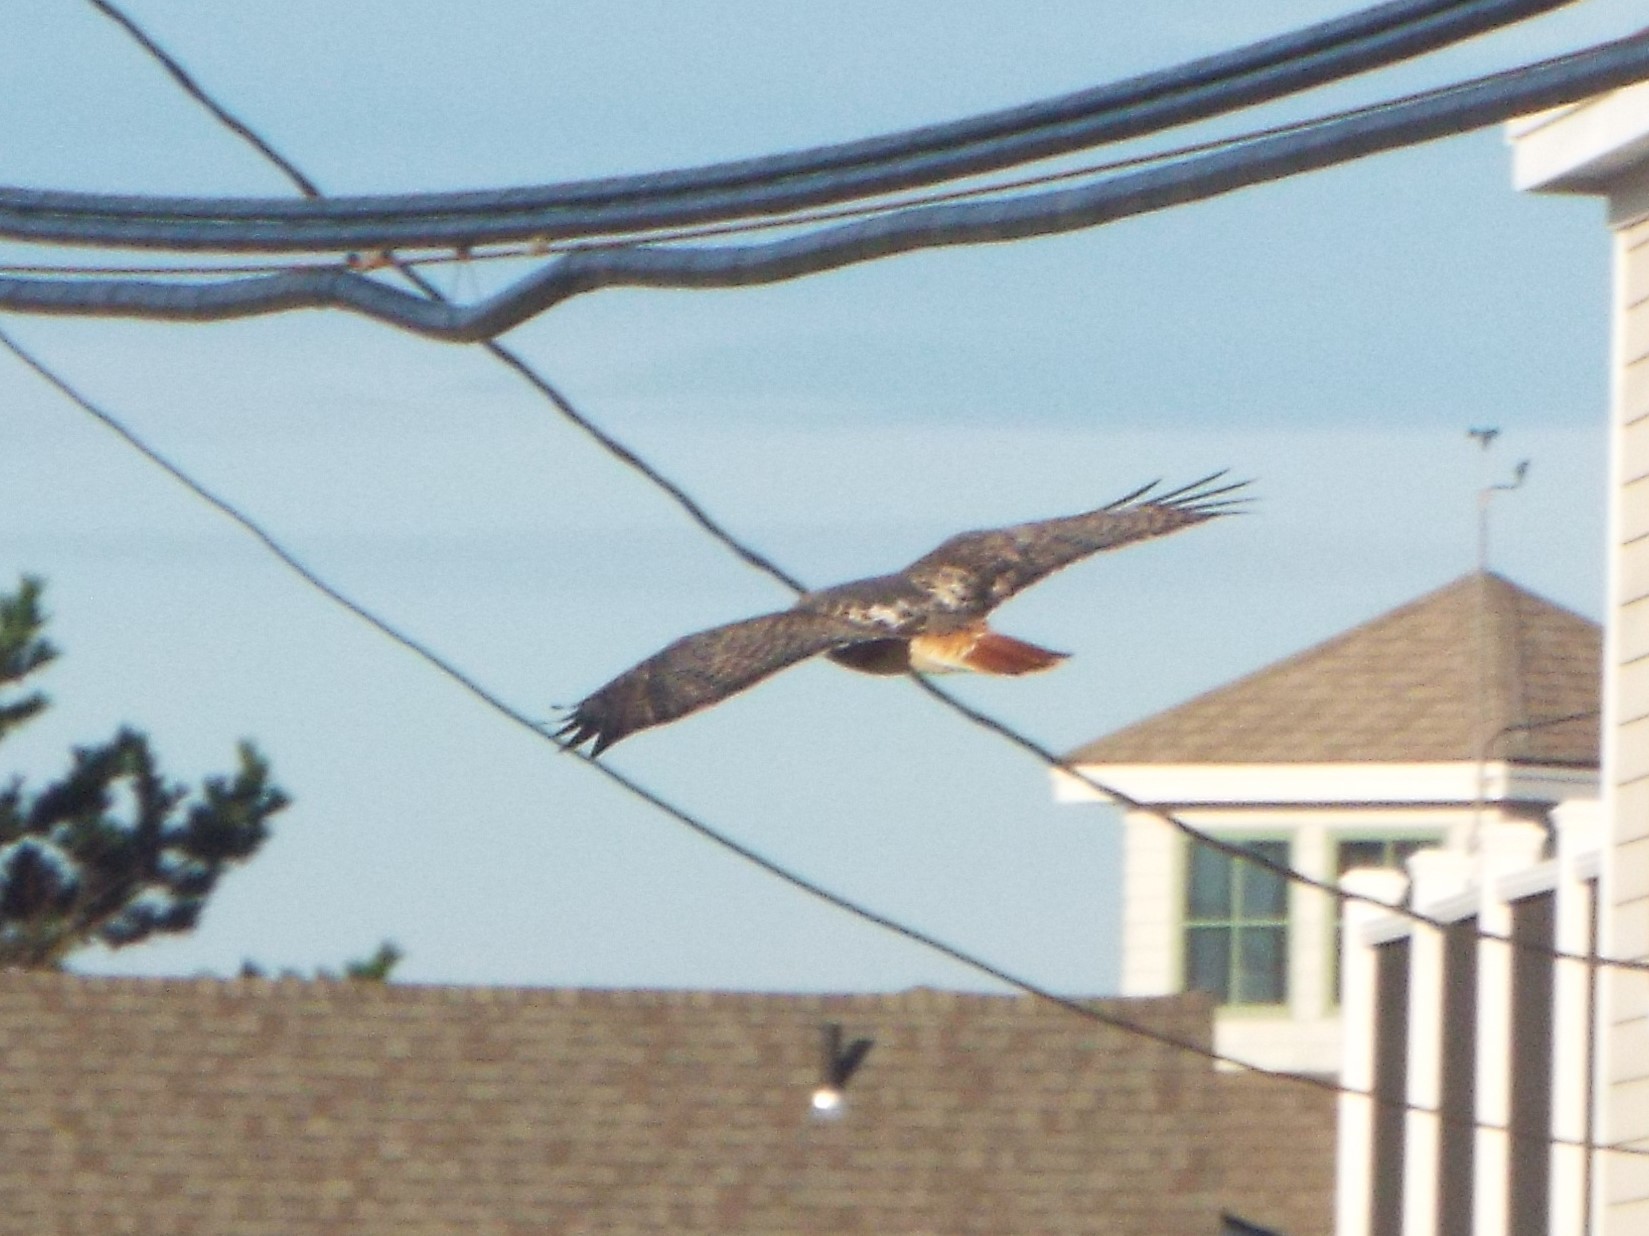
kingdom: Animalia
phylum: Chordata
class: Aves
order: Accipitriformes
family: Accipitridae
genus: Buteo
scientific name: Buteo jamaicensis
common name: Red-tailed hawk
